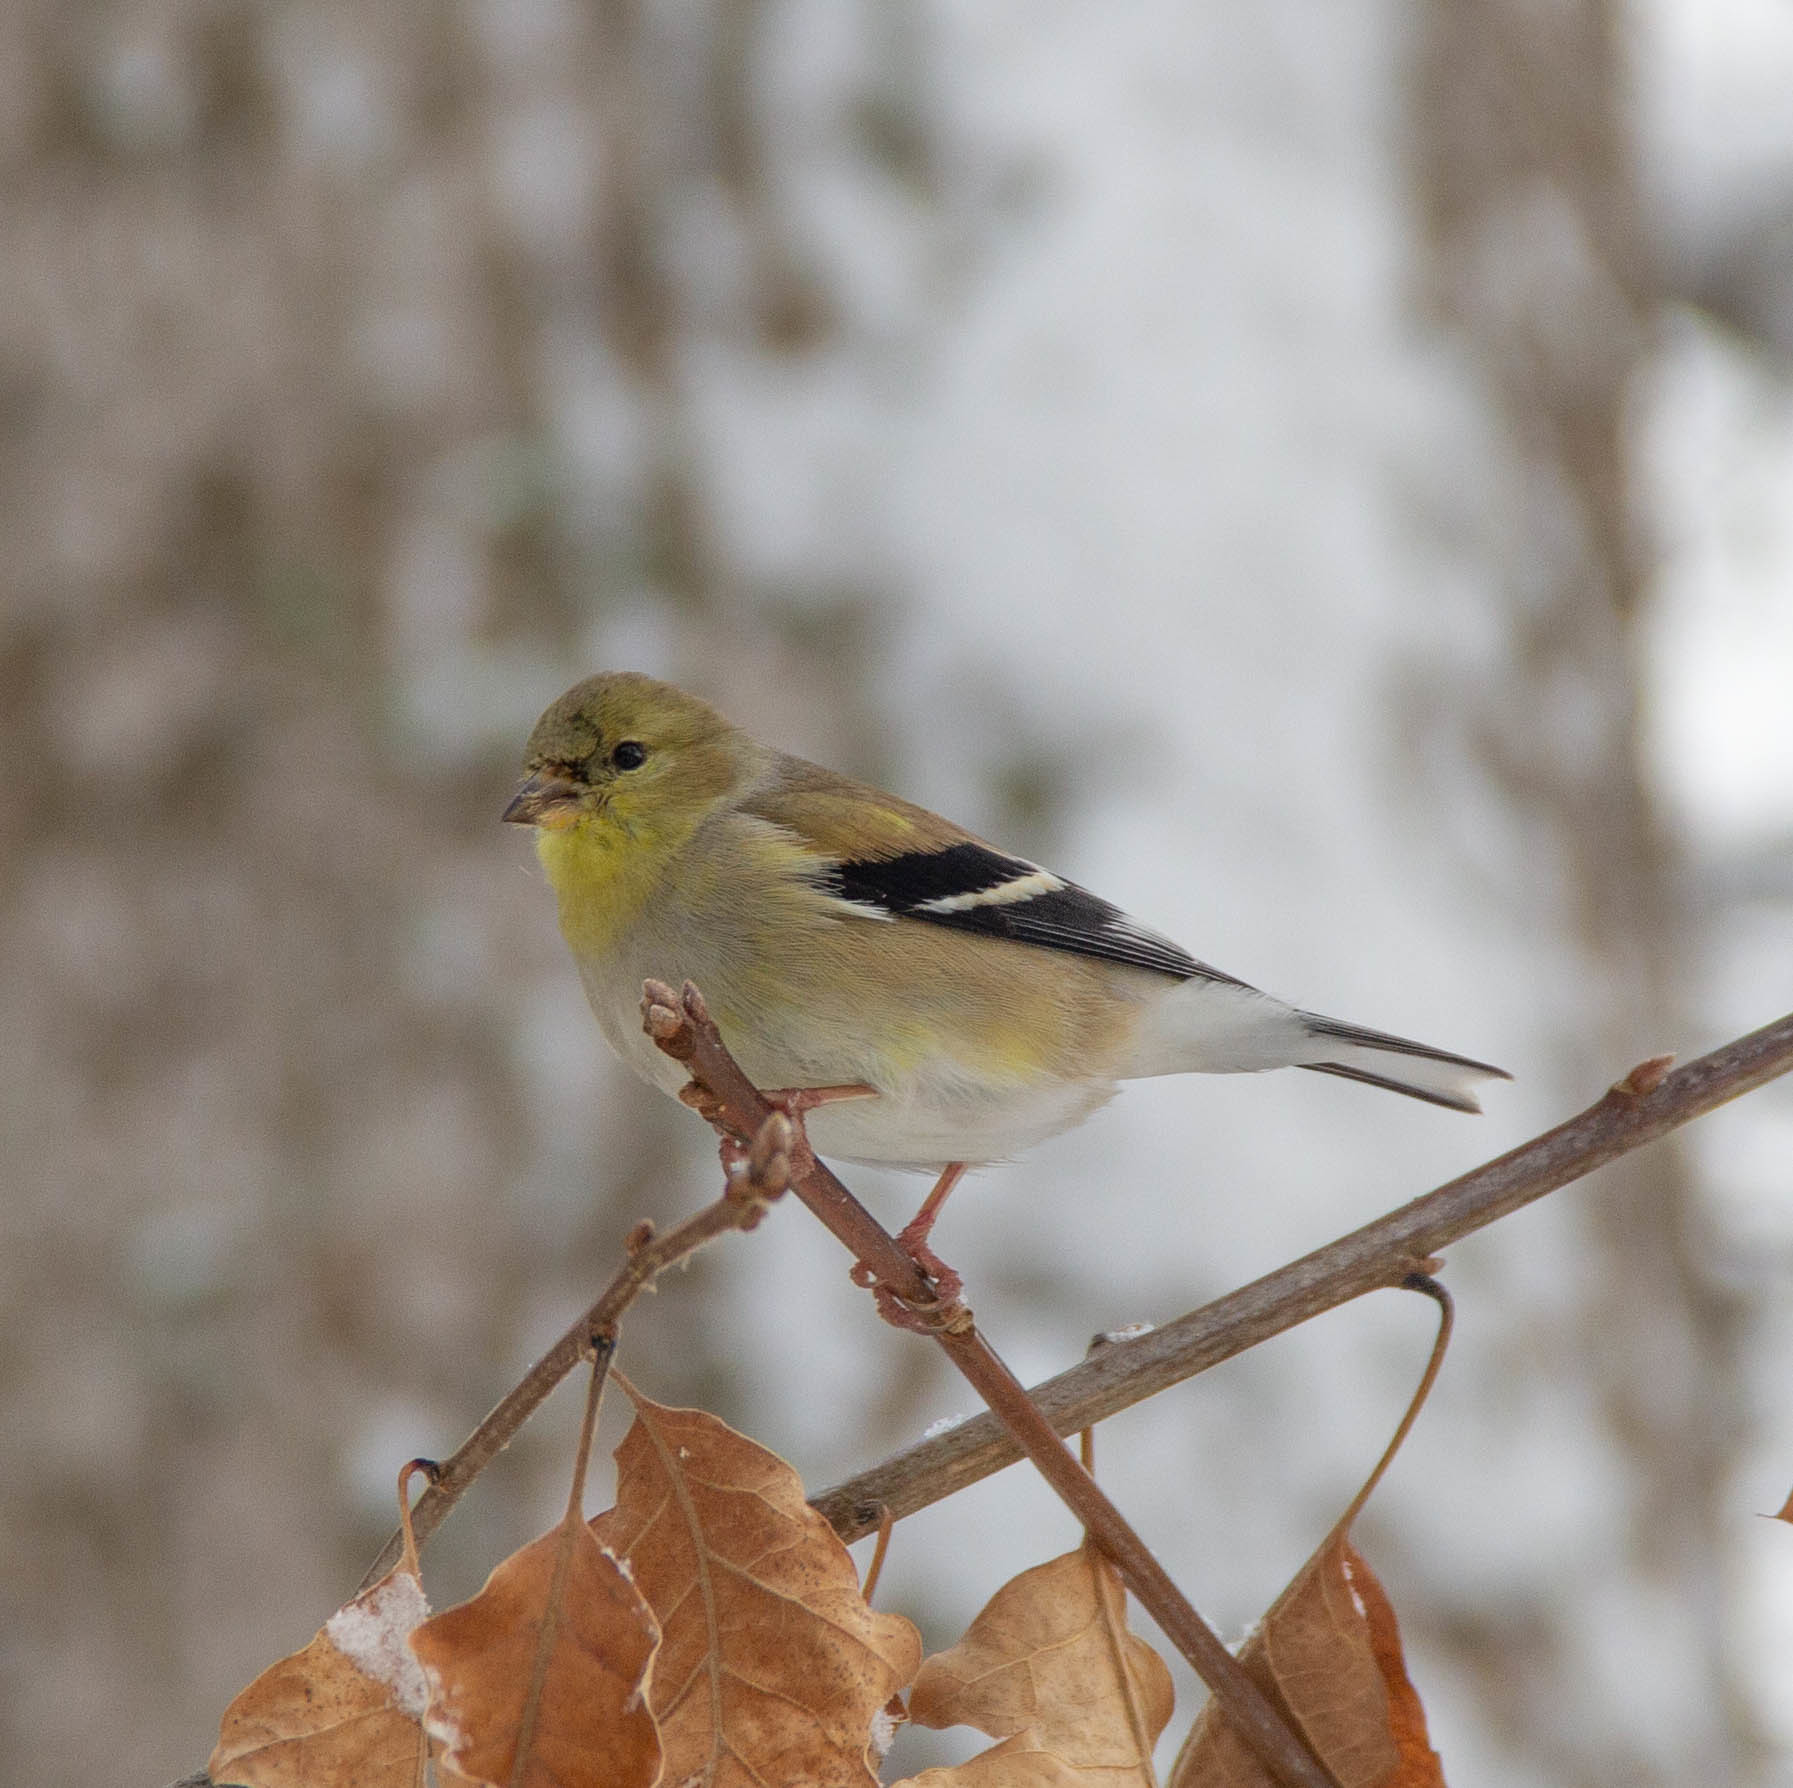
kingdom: Animalia
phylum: Chordata
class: Aves
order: Passeriformes
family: Fringillidae
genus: Spinus
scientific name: Spinus tristis
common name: American goldfinch
